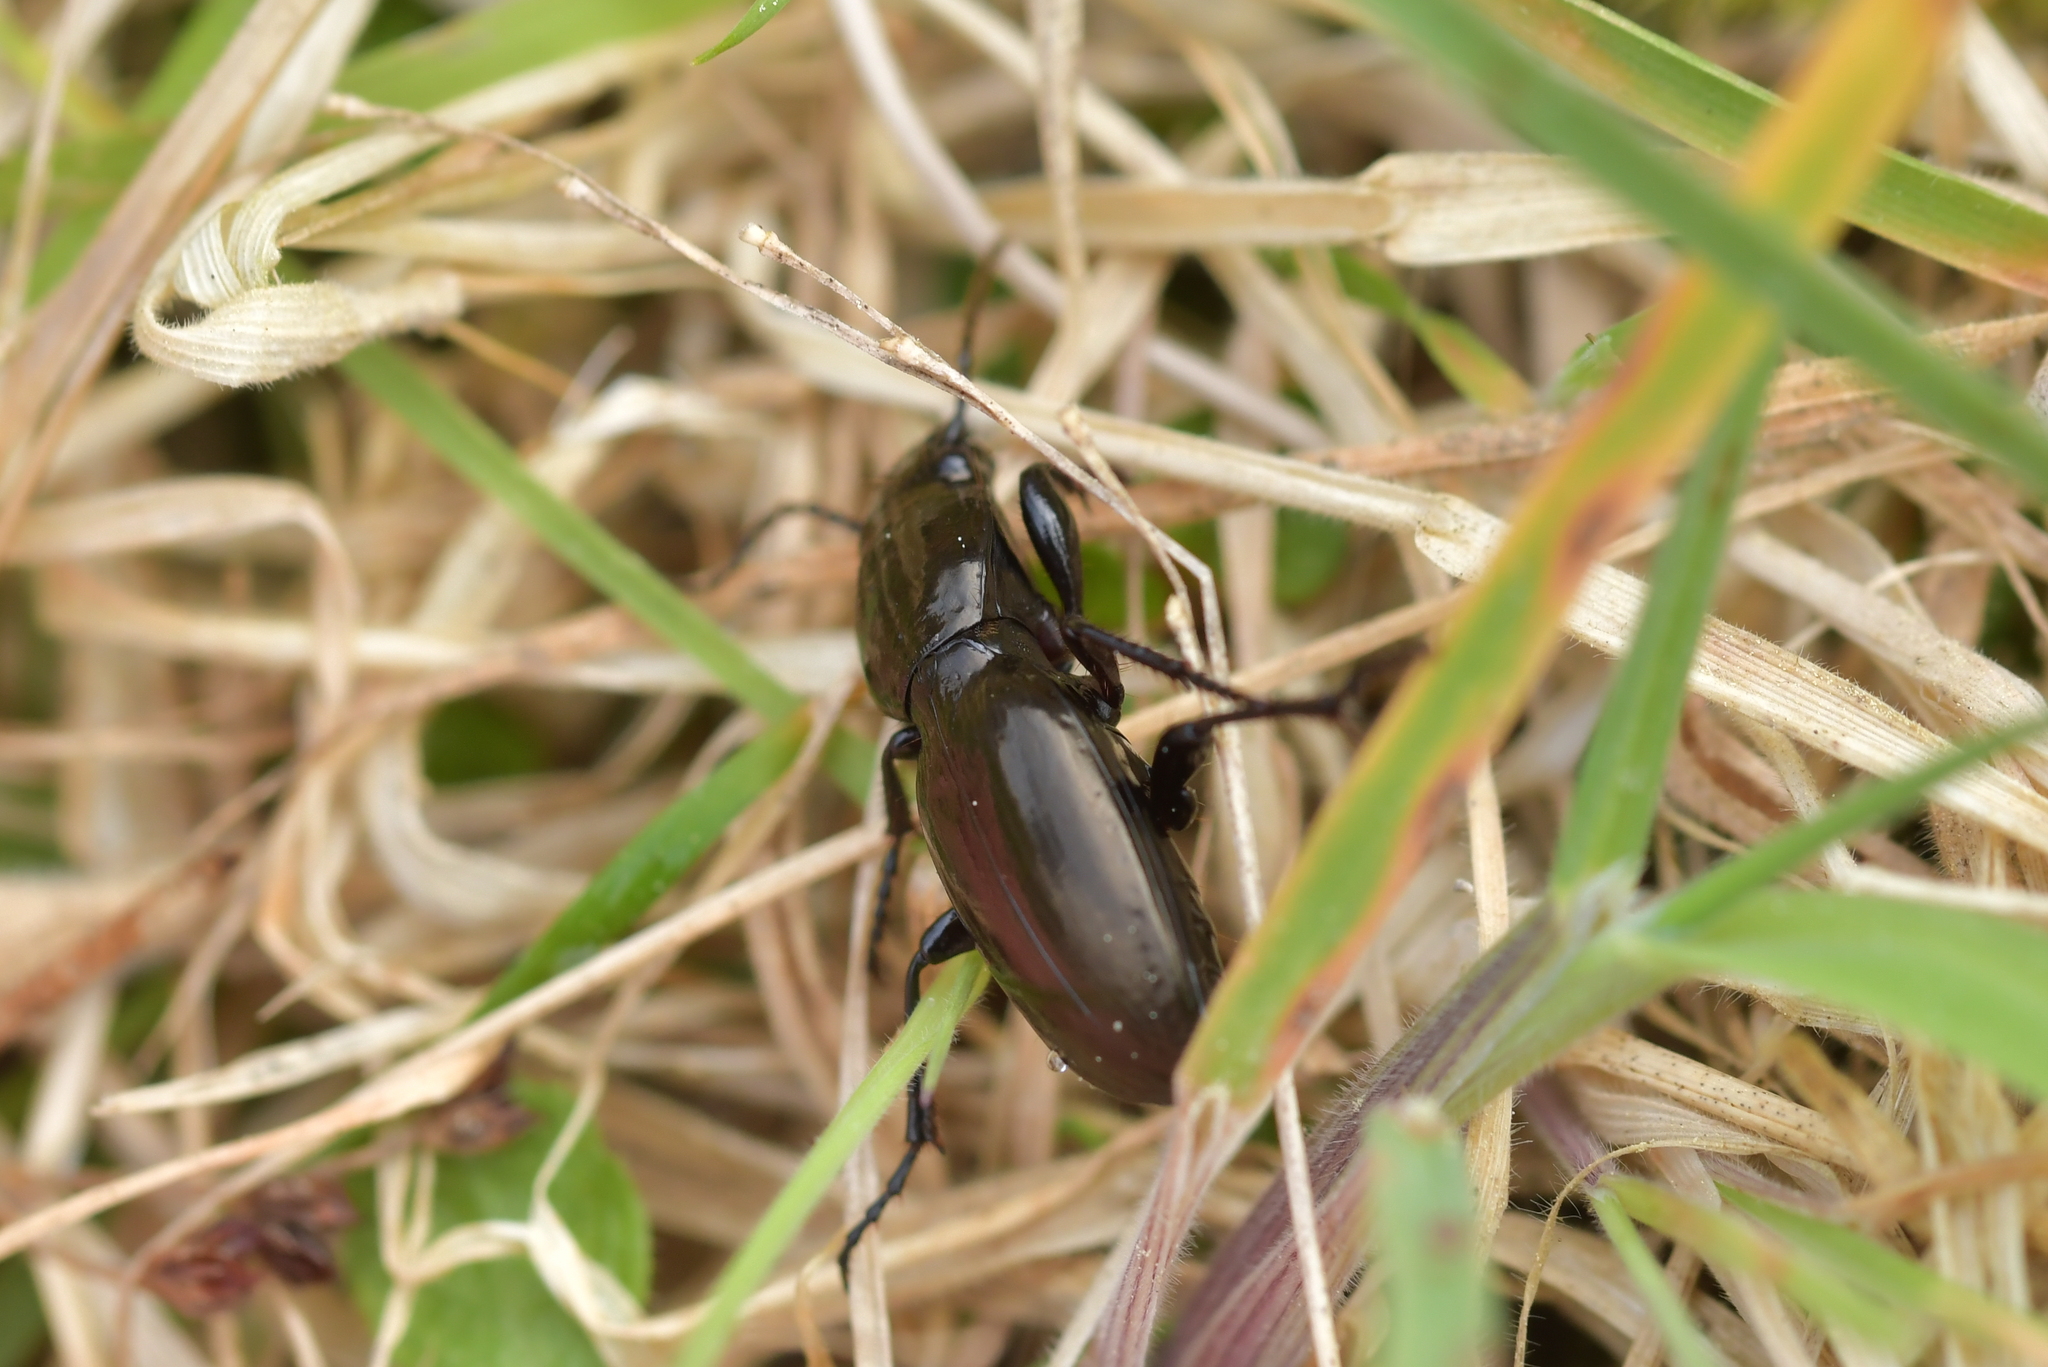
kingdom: Animalia
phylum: Arthropoda
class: Insecta
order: Coleoptera
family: Carabidae
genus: Oregus
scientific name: Oregus aereus
